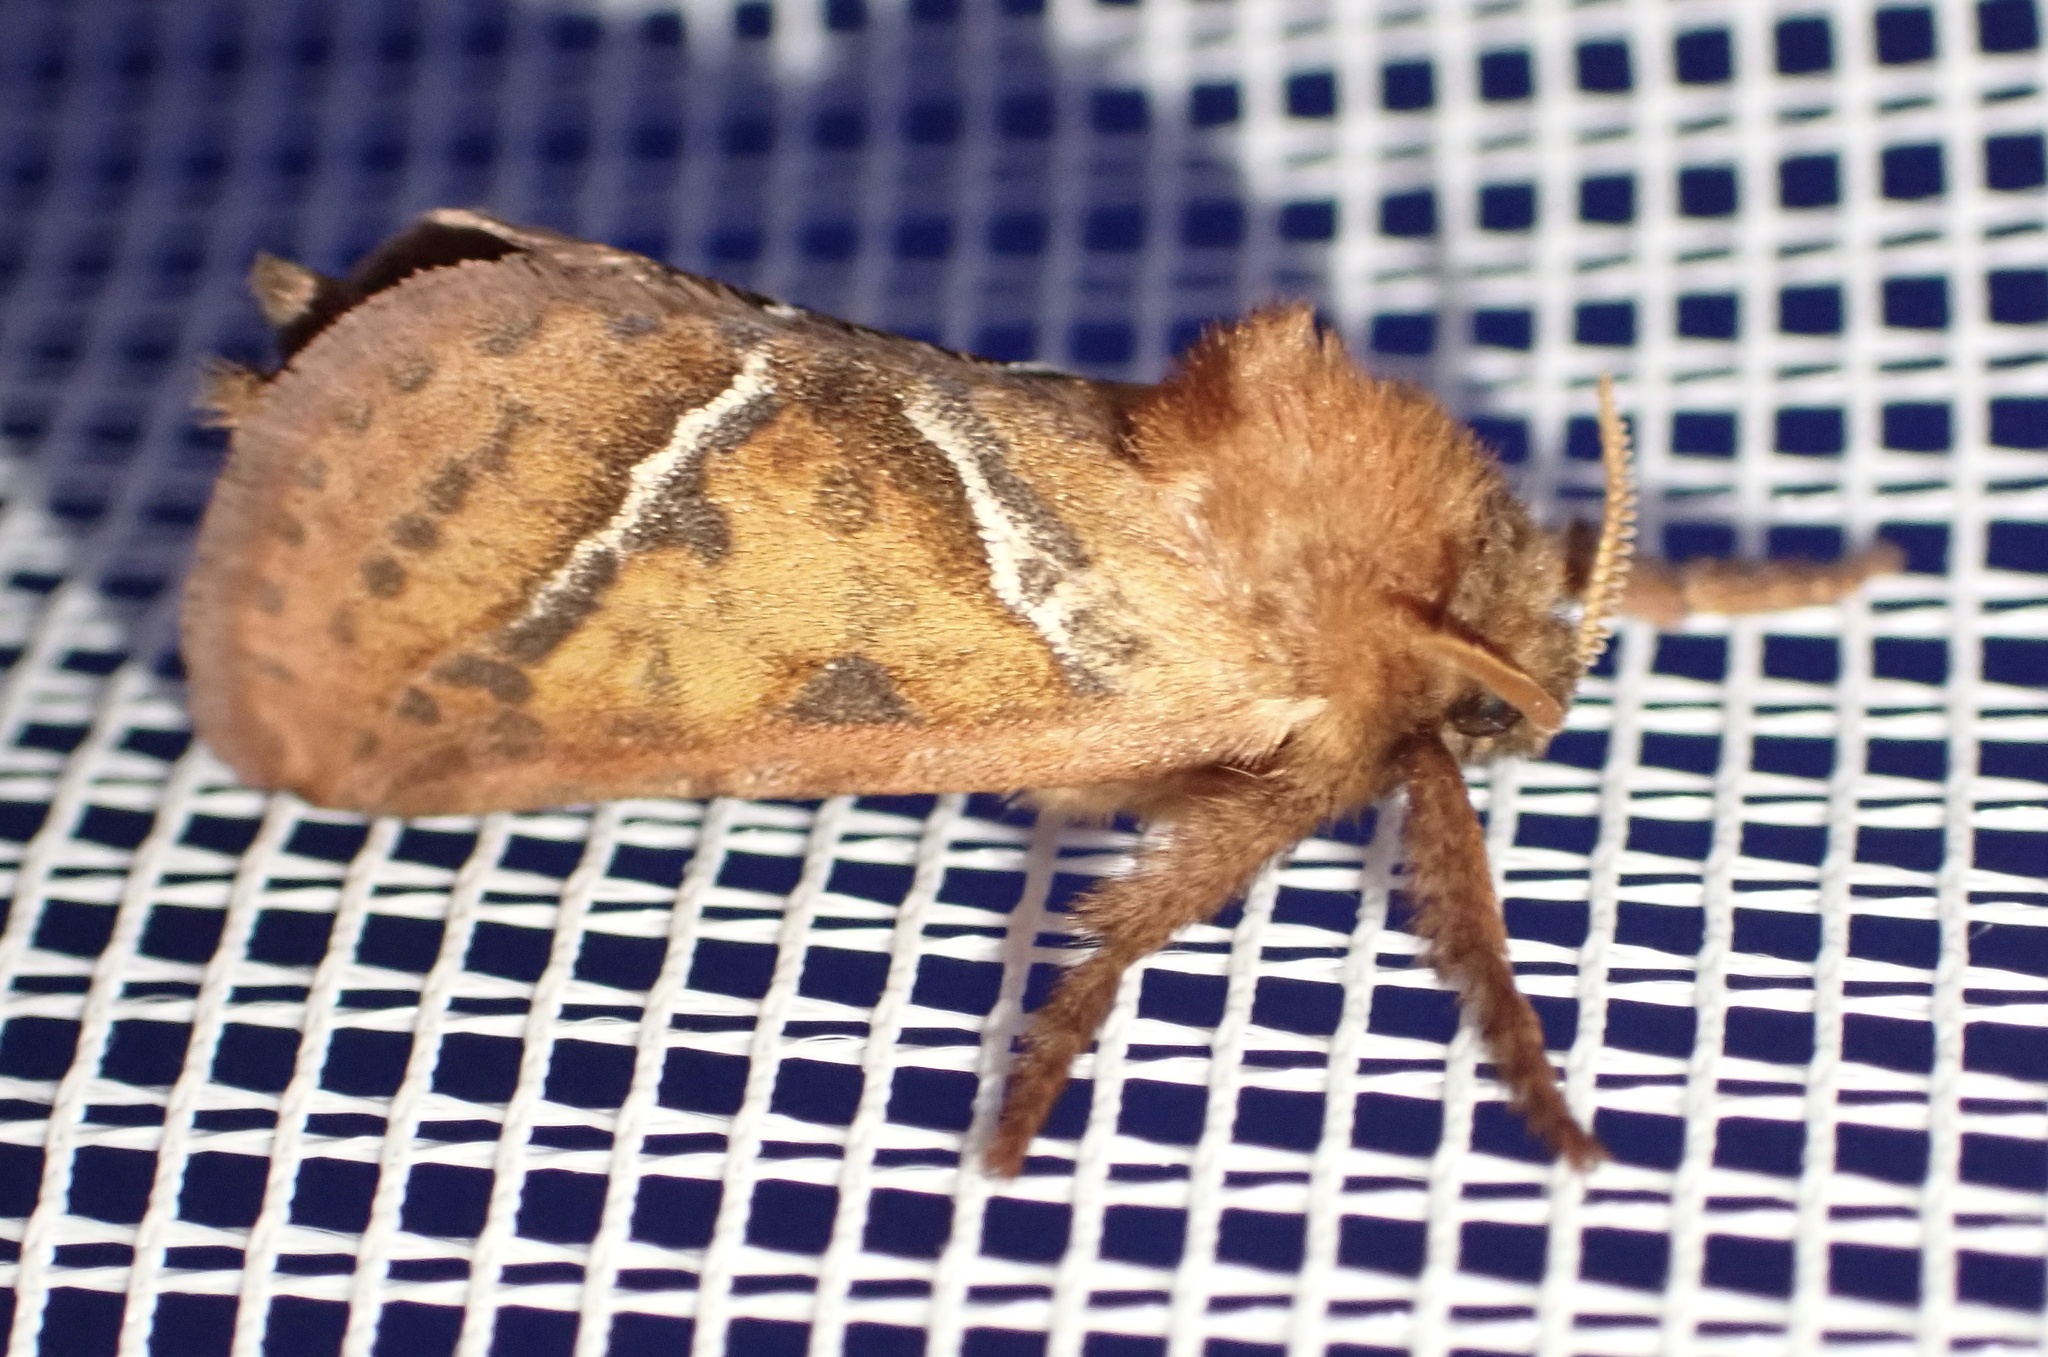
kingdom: Animalia
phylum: Arthropoda
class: Insecta
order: Lepidoptera
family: Hepialidae
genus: Triodia
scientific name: Triodia sylvina
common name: Orange swift
